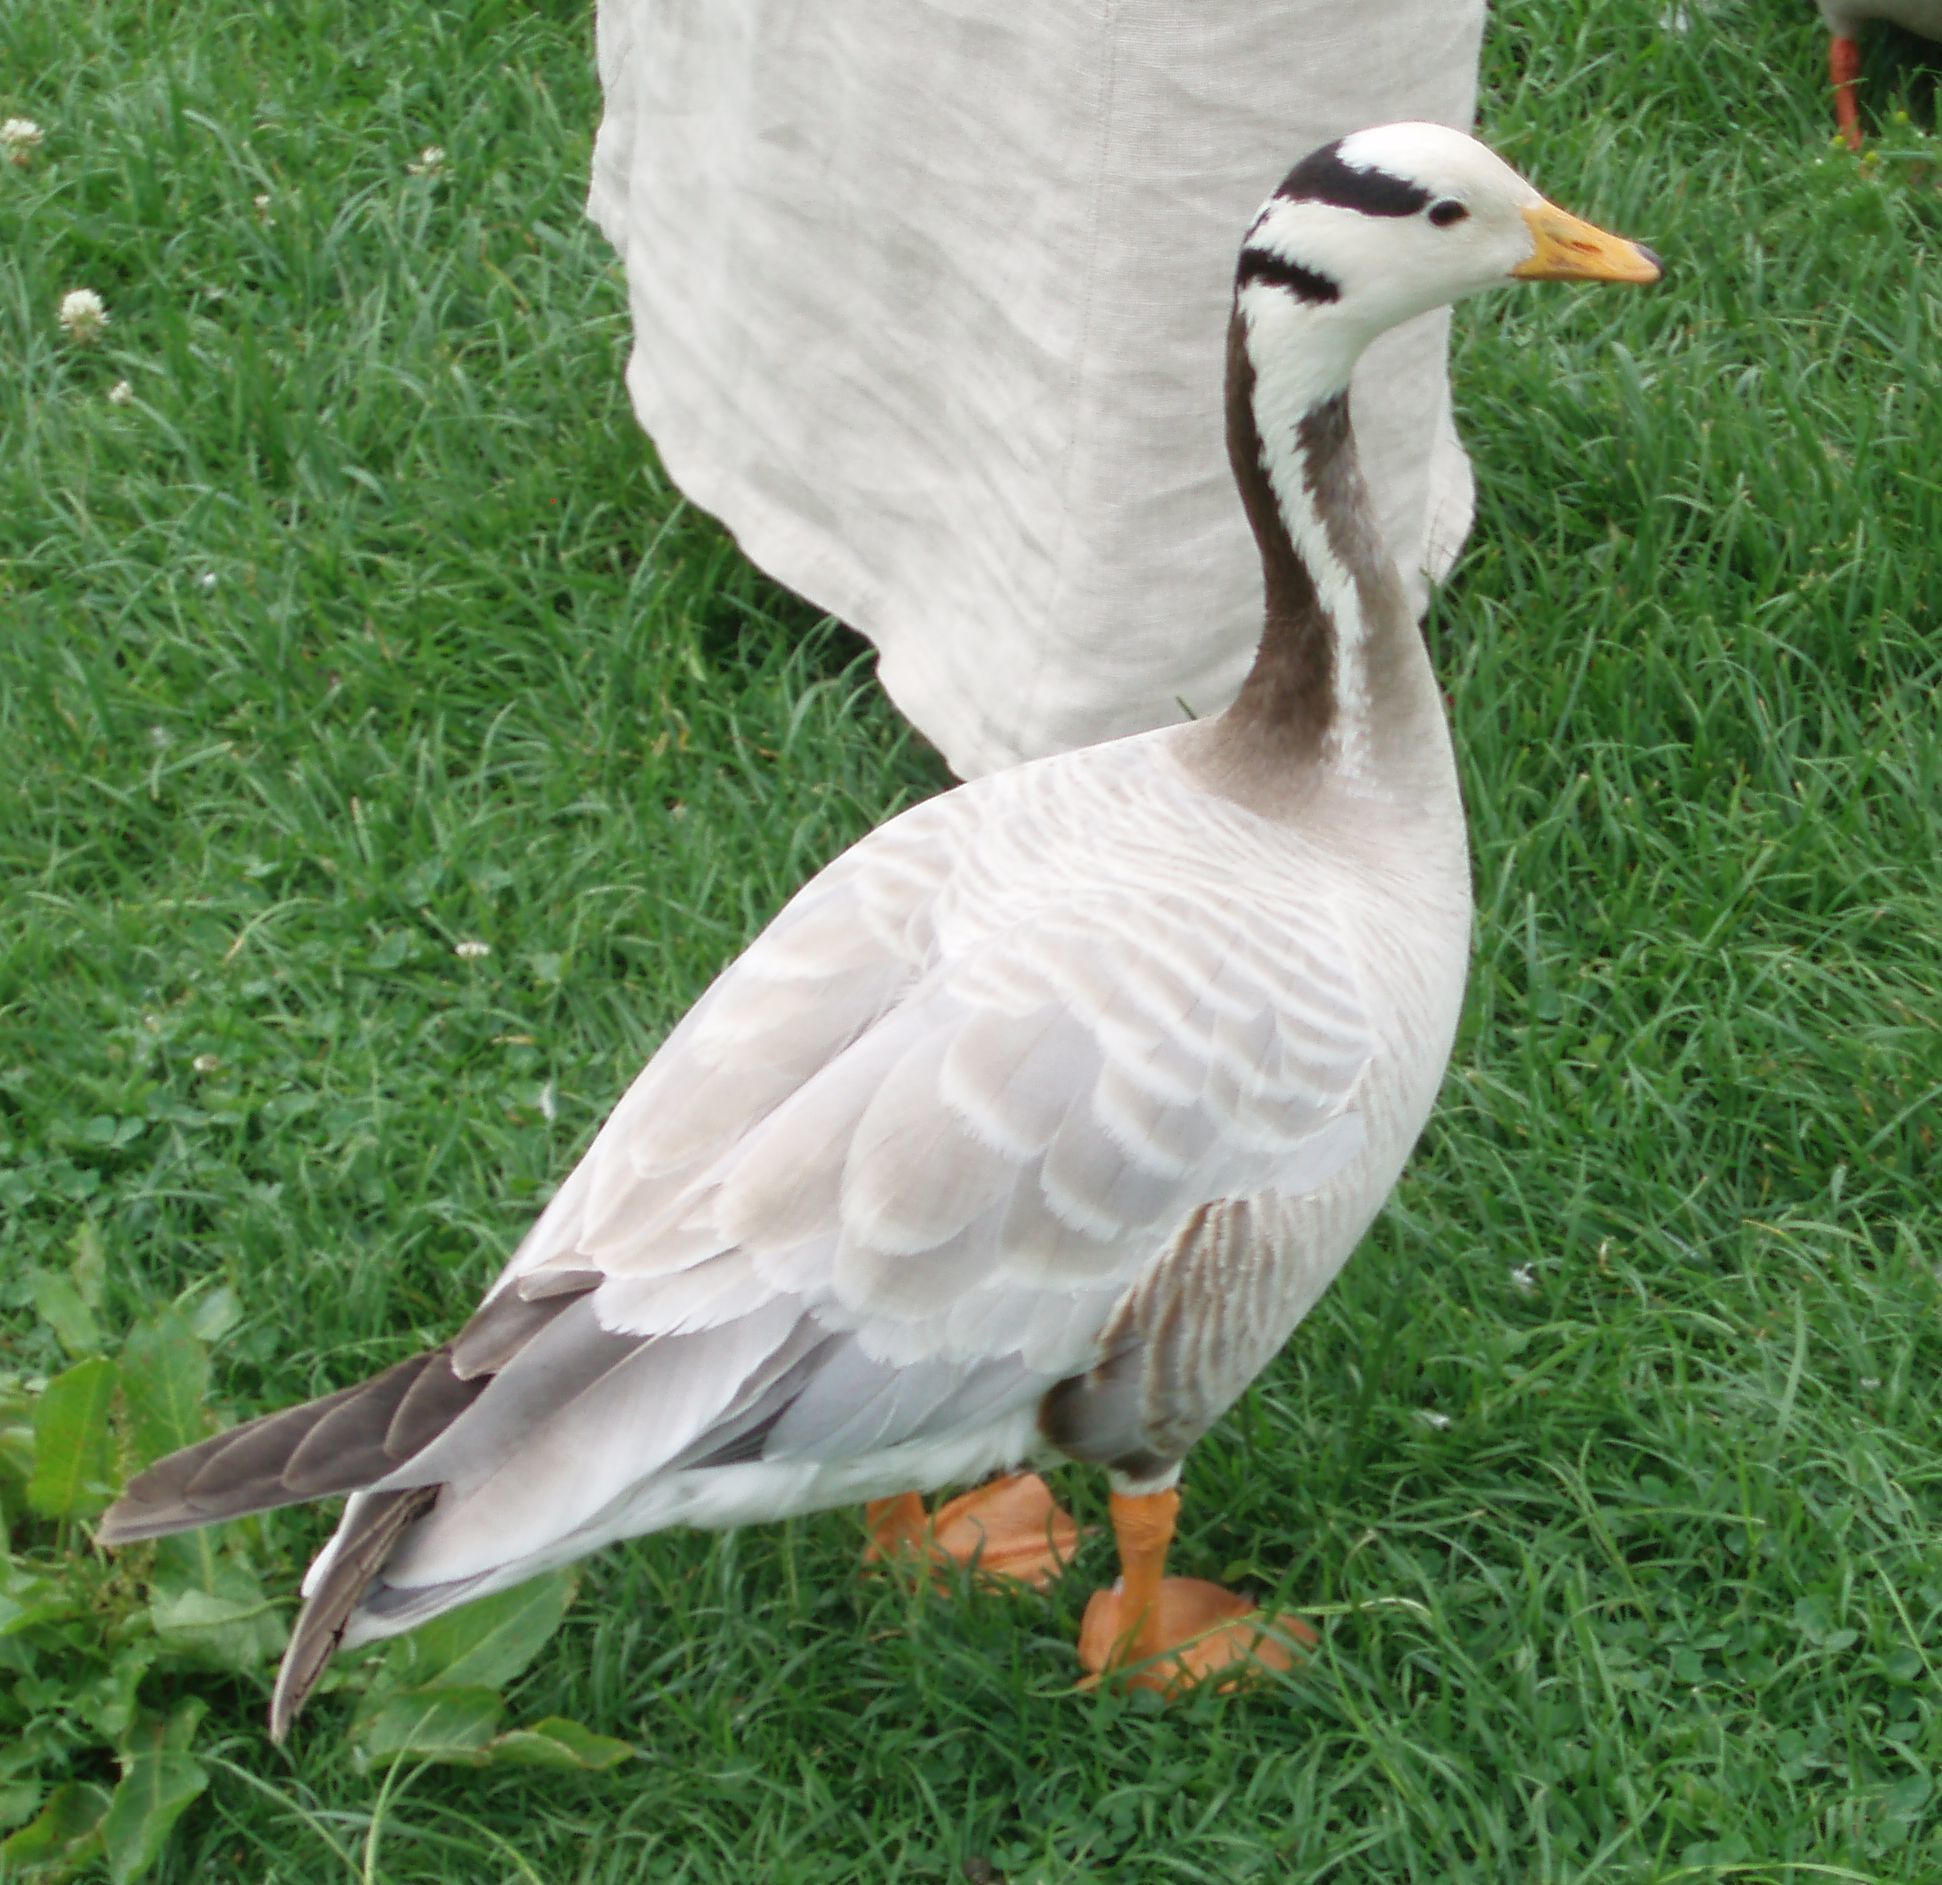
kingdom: Animalia
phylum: Chordata
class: Aves
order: Anseriformes
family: Anatidae
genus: Anser
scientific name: Anser indicus
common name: Bar-headed goose
